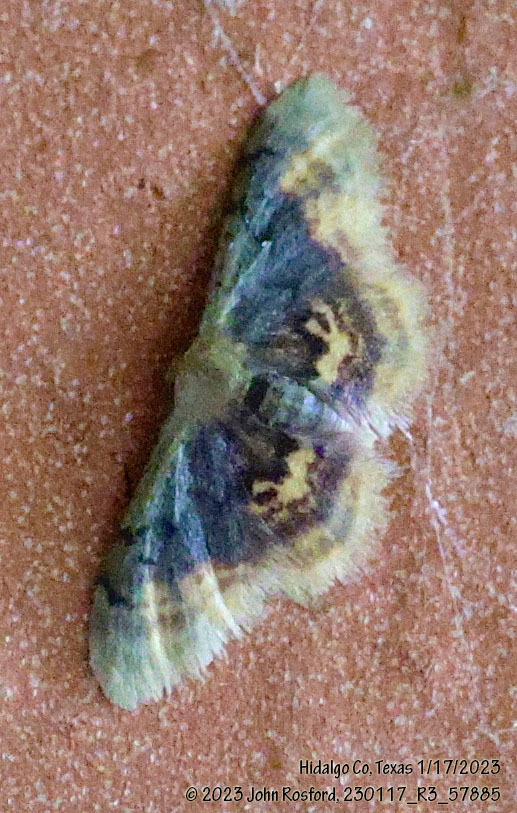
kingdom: Animalia
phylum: Arthropoda
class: Insecta
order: Lepidoptera
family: Geometridae
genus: Idaea
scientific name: Idaea scintillularia
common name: Diminutive wave
